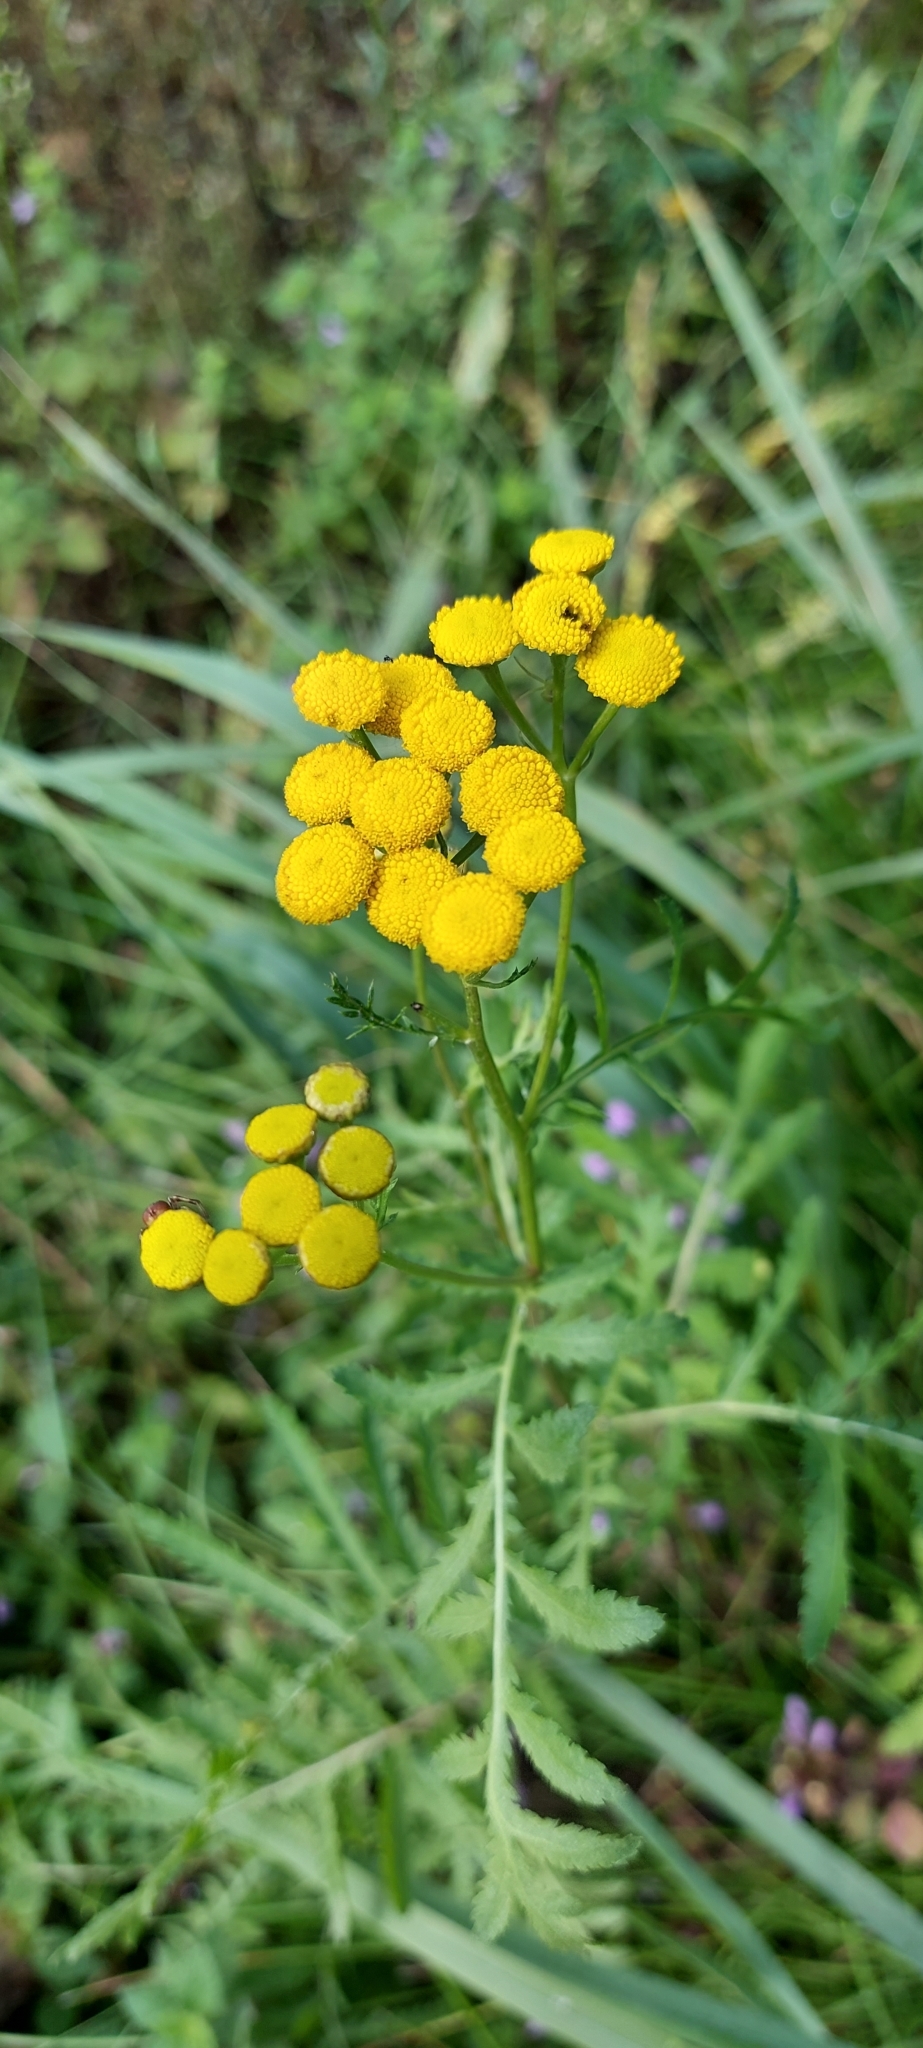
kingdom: Plantae
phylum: Tracheophyta
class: Magnoliopsida
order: Asterales
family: Asteraceae
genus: Tanacetum
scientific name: Tanacetum vulgare
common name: Common tansy
